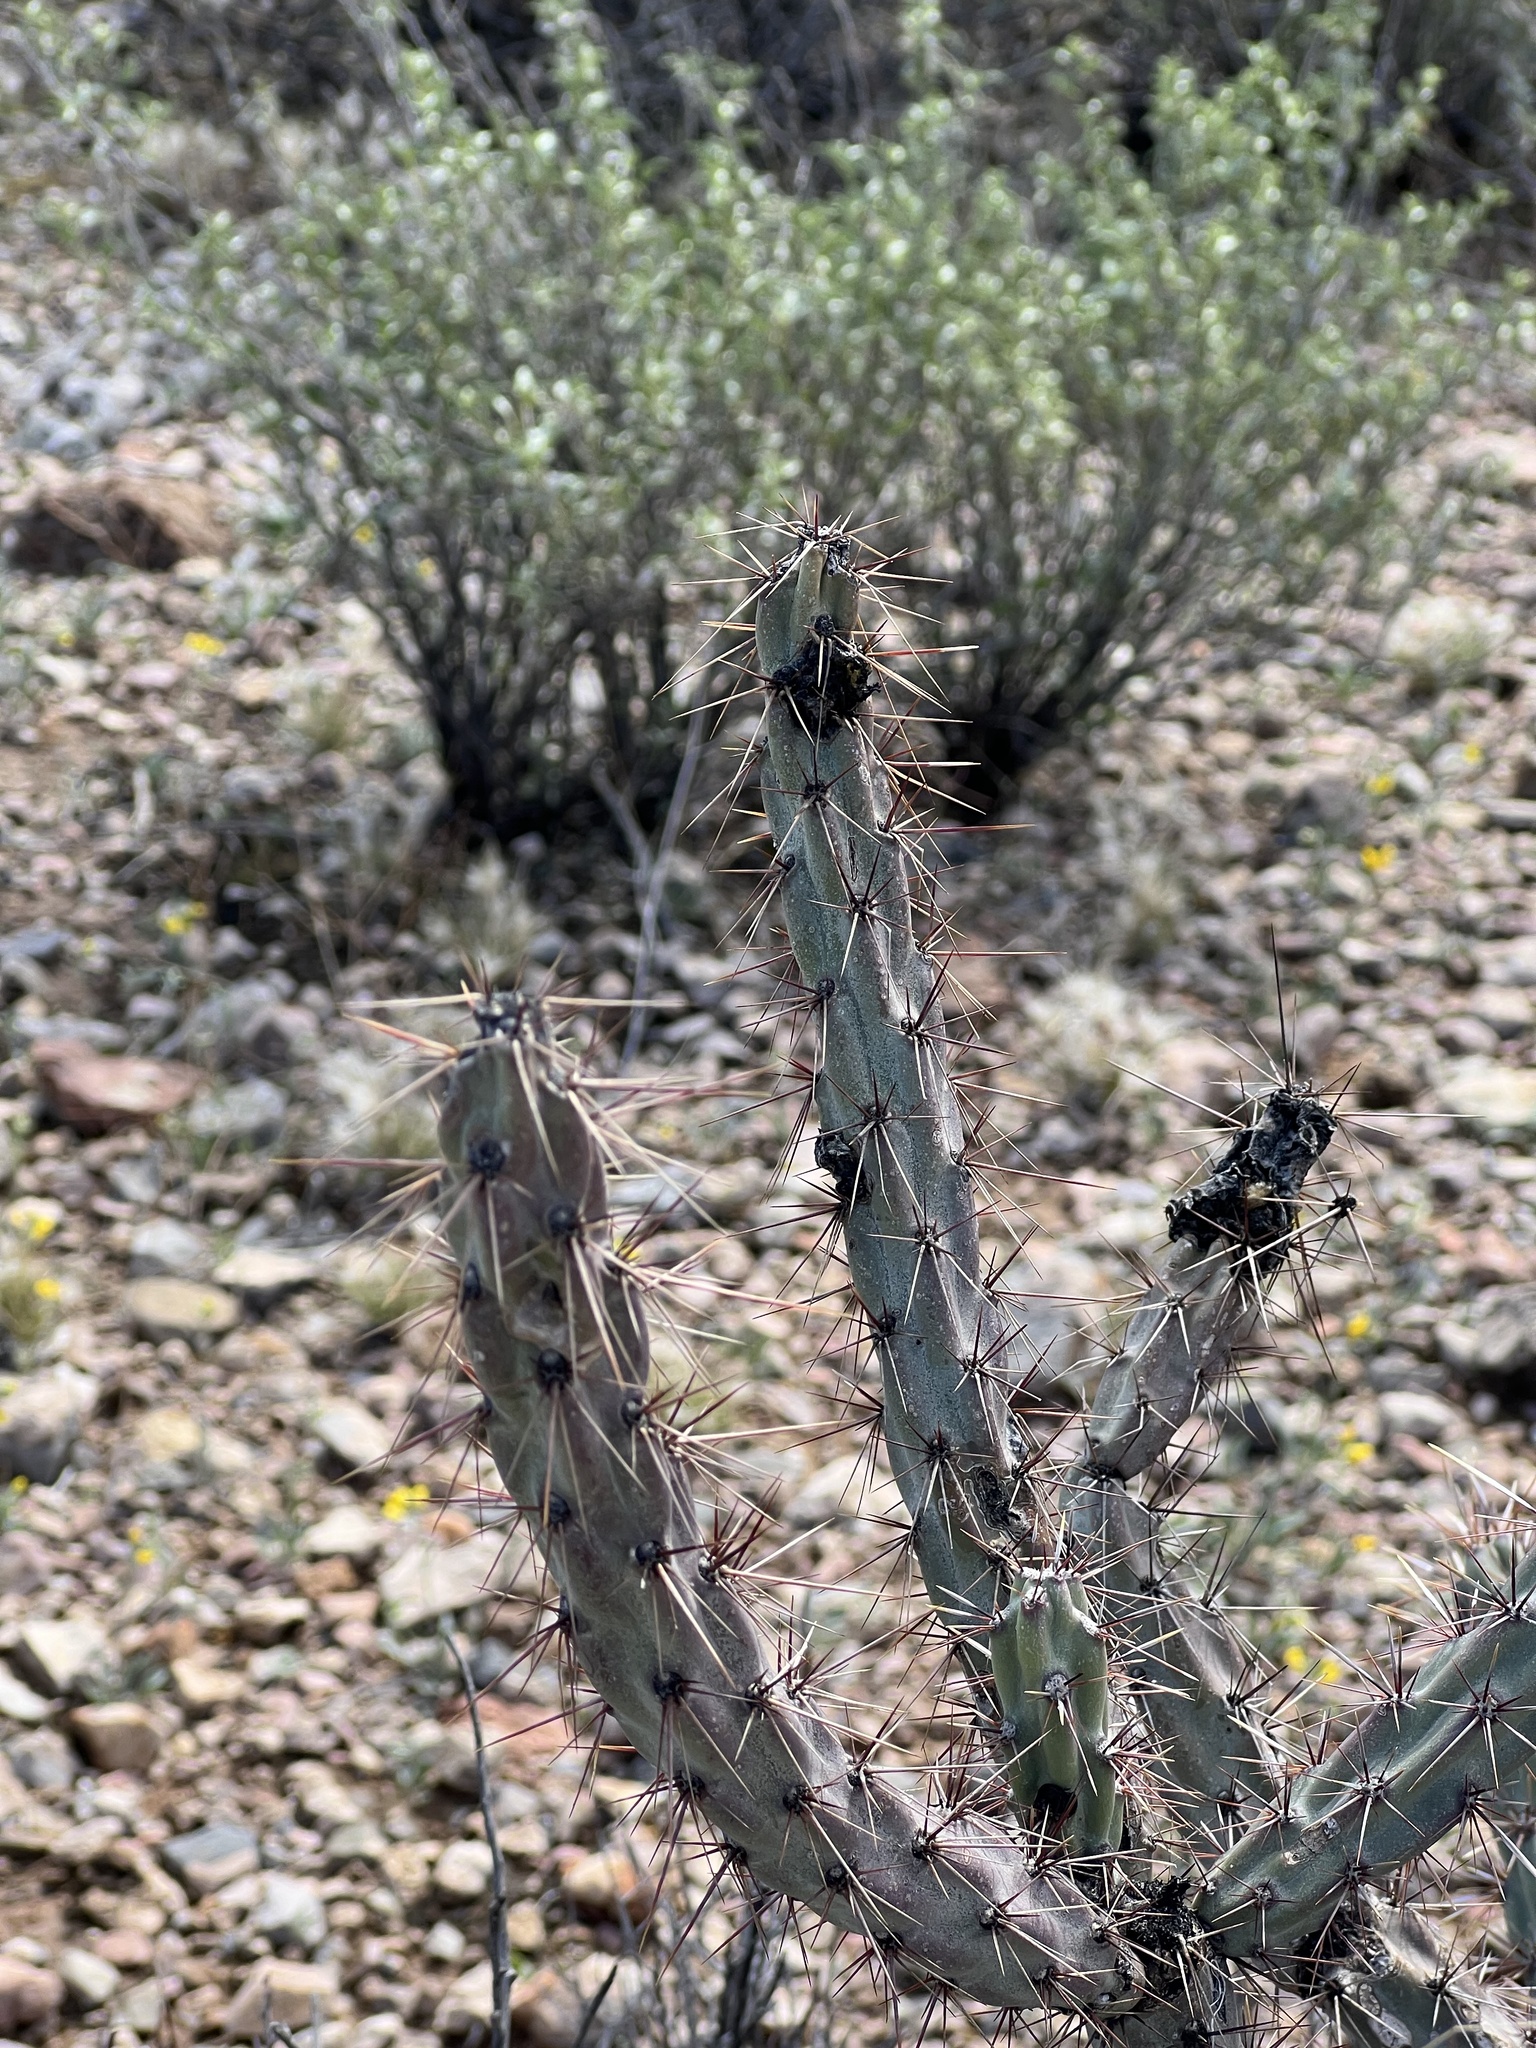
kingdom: Plantae
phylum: Tracheophyta
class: Magnoliopsida
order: Caryophyllales
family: Cactaceae
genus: Cylindropuntia
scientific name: Cylindropuntia acanthocarpa
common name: Buckhorn cholla
